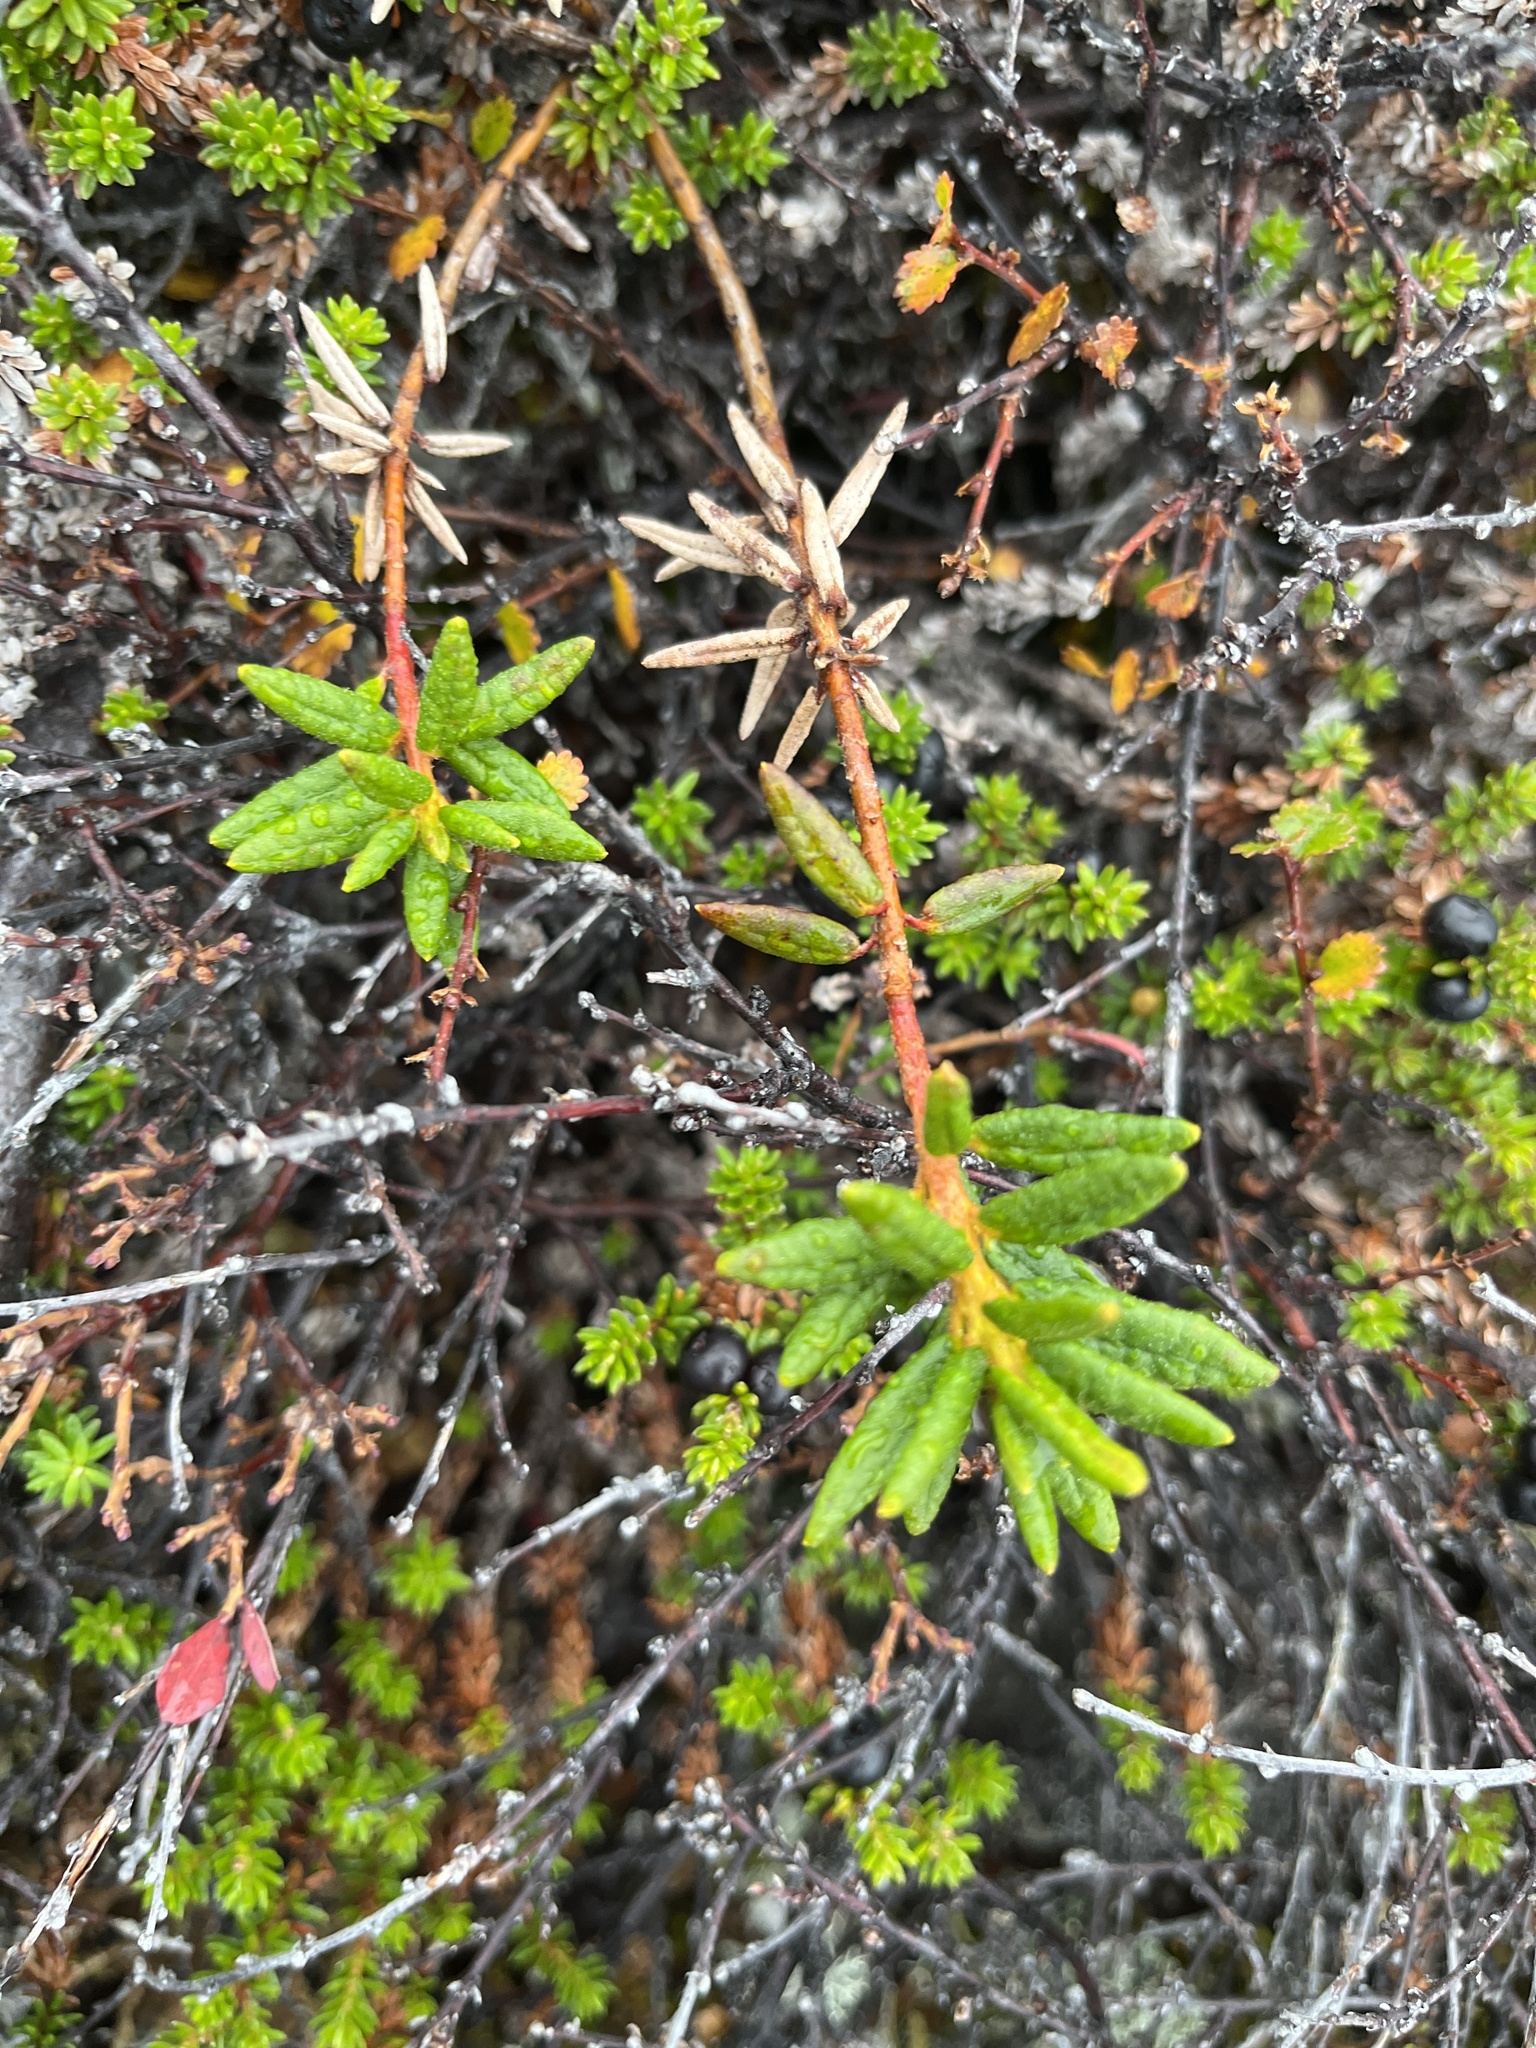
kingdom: Plantae
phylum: Tracheophyta
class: Magnoliopsida
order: Ericales
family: Ericaceae
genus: Rhododendron
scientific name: Rhododendron groenlandicum
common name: Bog labrador tea
